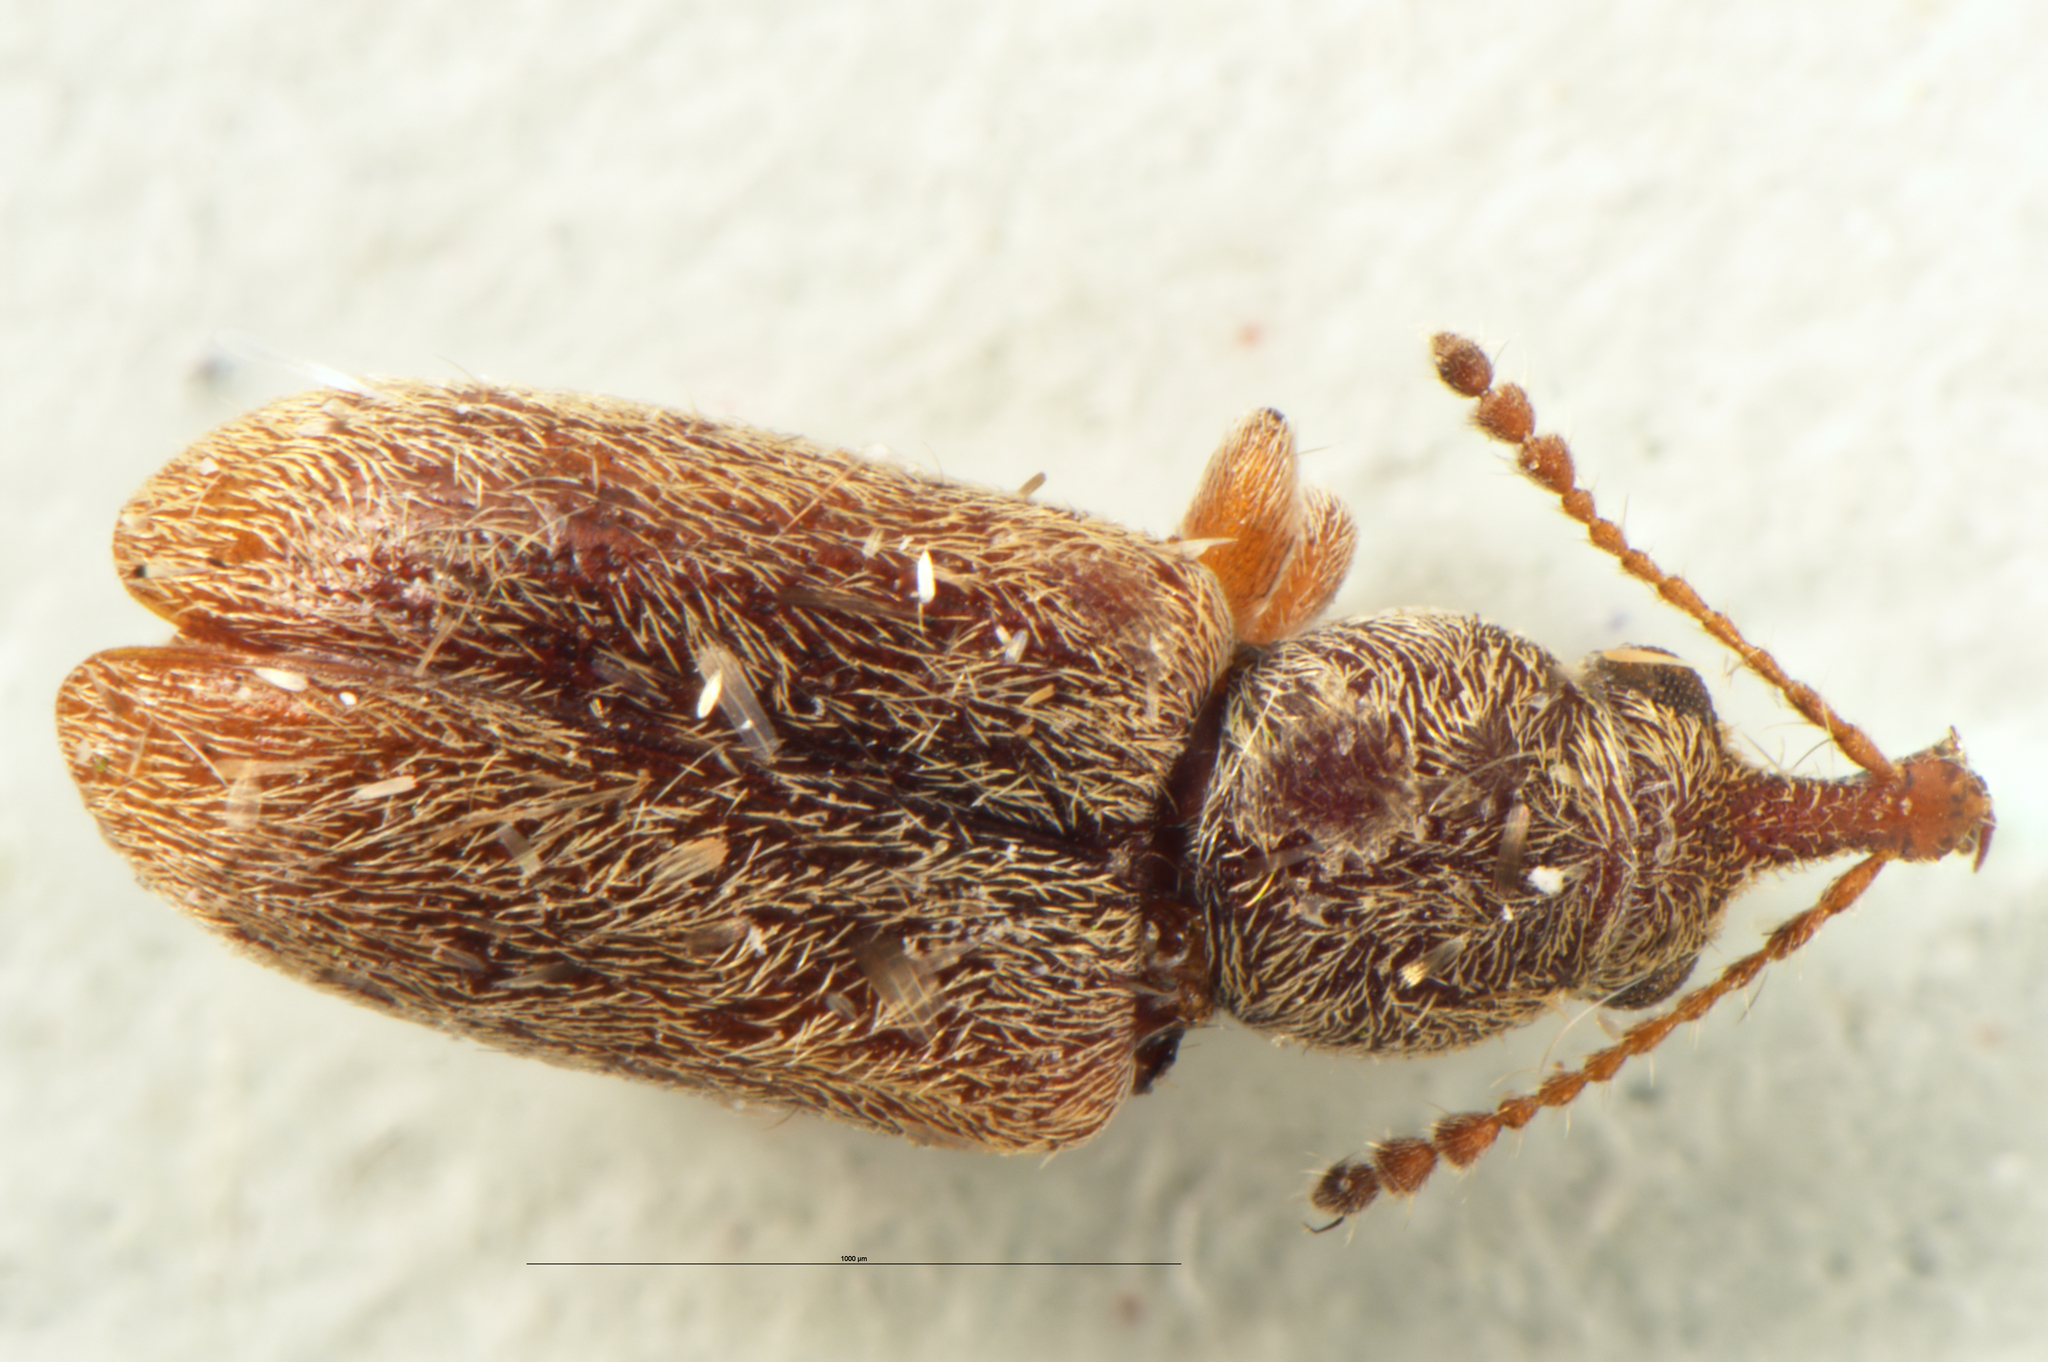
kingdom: Animalia
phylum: Arthropoda
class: Insecta
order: Coleoptera
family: Nemonychidae
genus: Rhinorhynchus
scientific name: Rhinorhynchus rufulus
